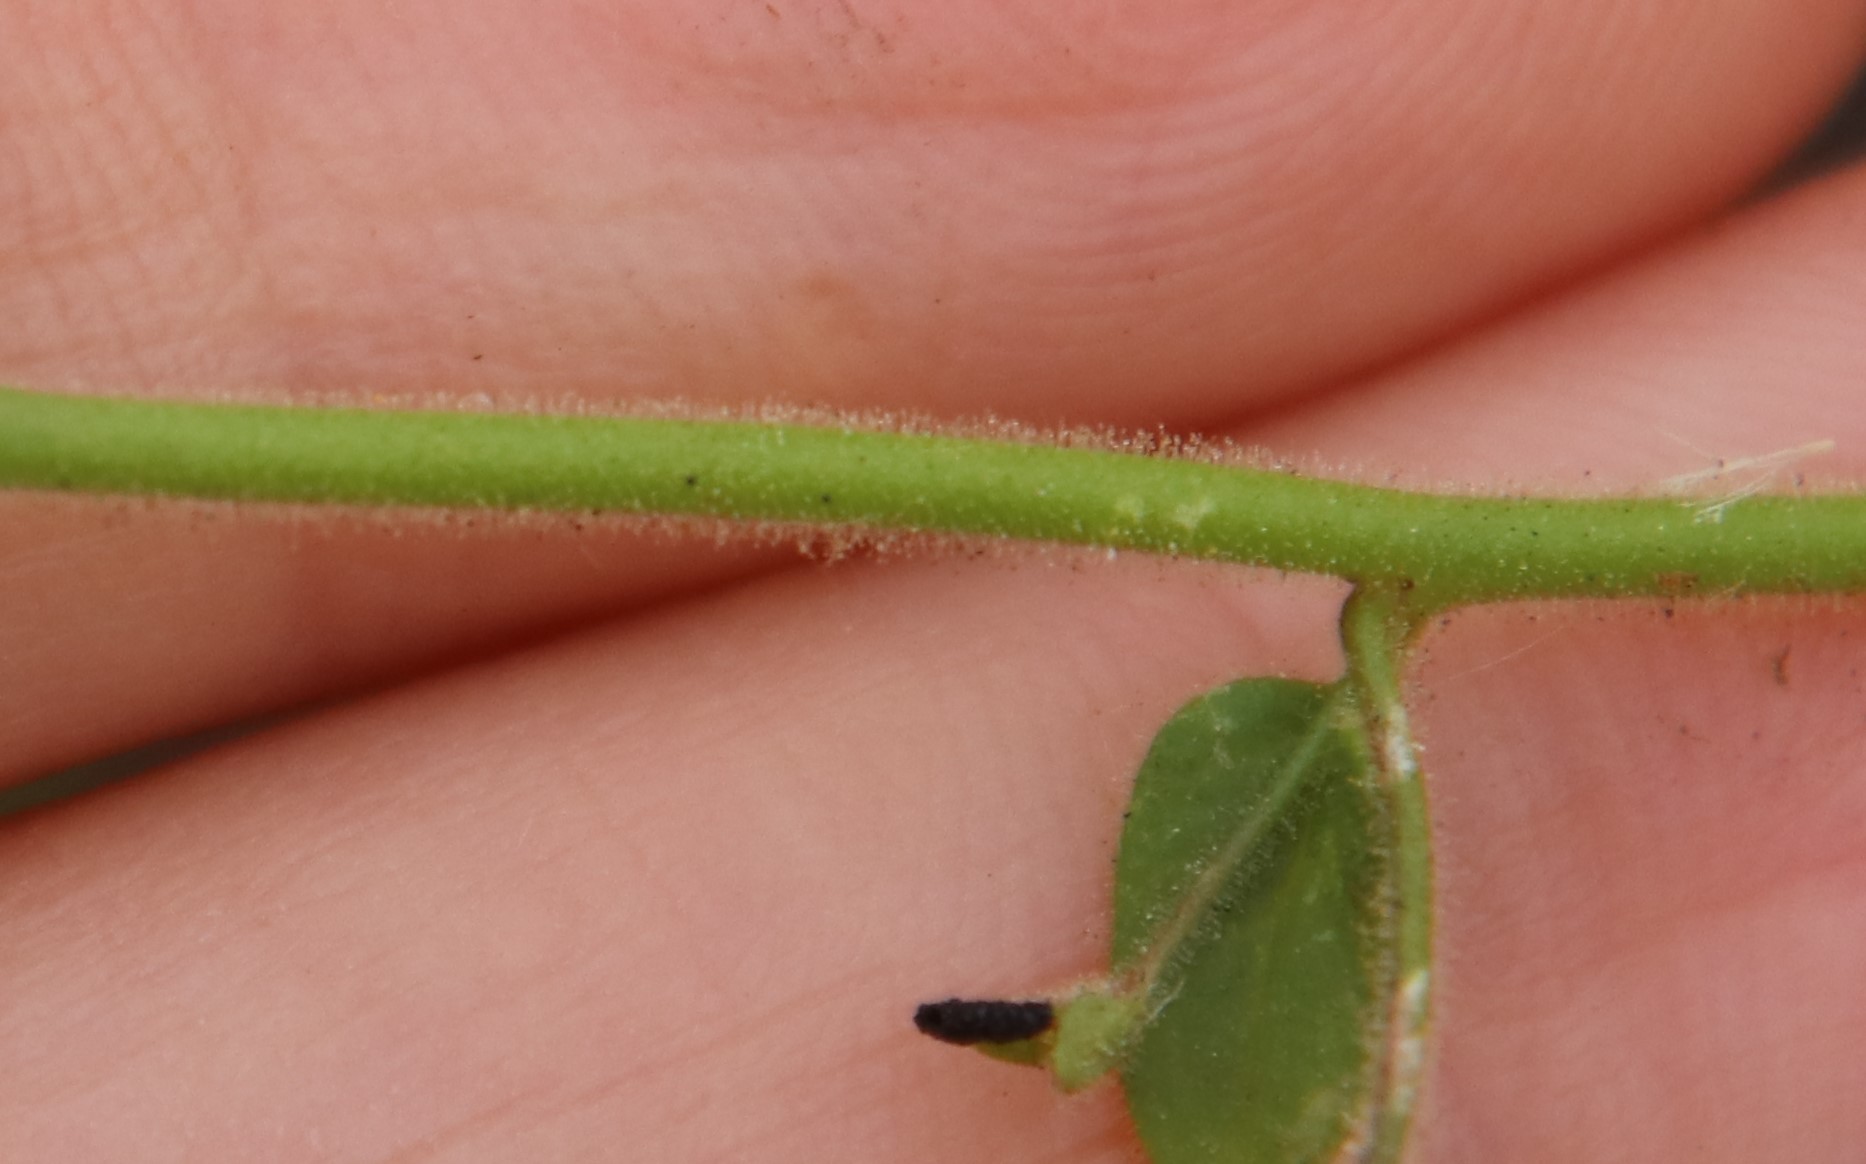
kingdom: Plantae
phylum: Tracheophyta
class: Magnoliopsida
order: Lamiales
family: Plantaginaceae
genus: Sairocarpus
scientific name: Sairocarpus nuttallianus
